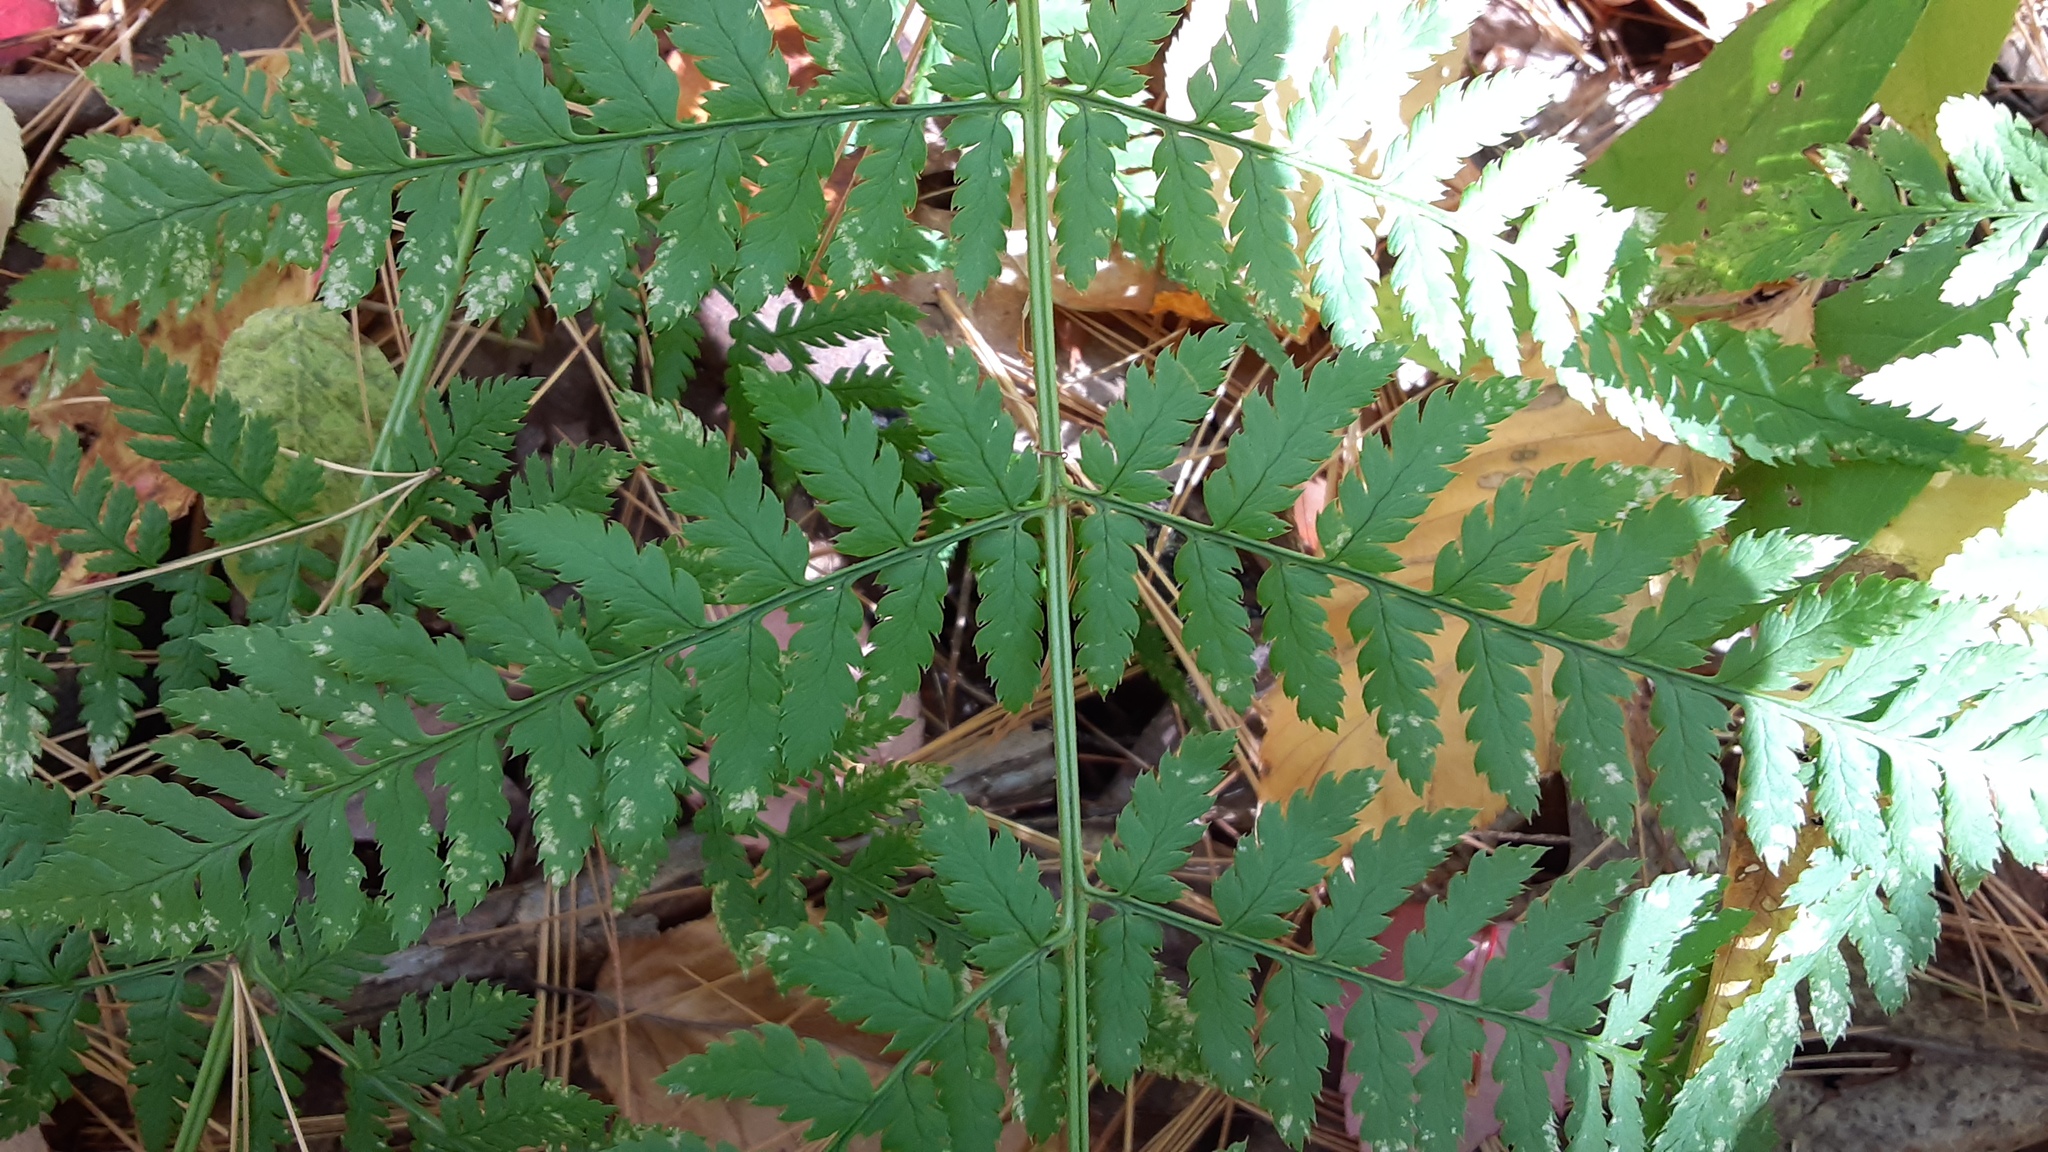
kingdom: Plantae
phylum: Tracheophyta
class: Polypodiopsida
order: Polypodiales
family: Dryopteridaceae
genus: Dryopteris
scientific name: Dryopteris intermedia
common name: Evergreen wood fern
